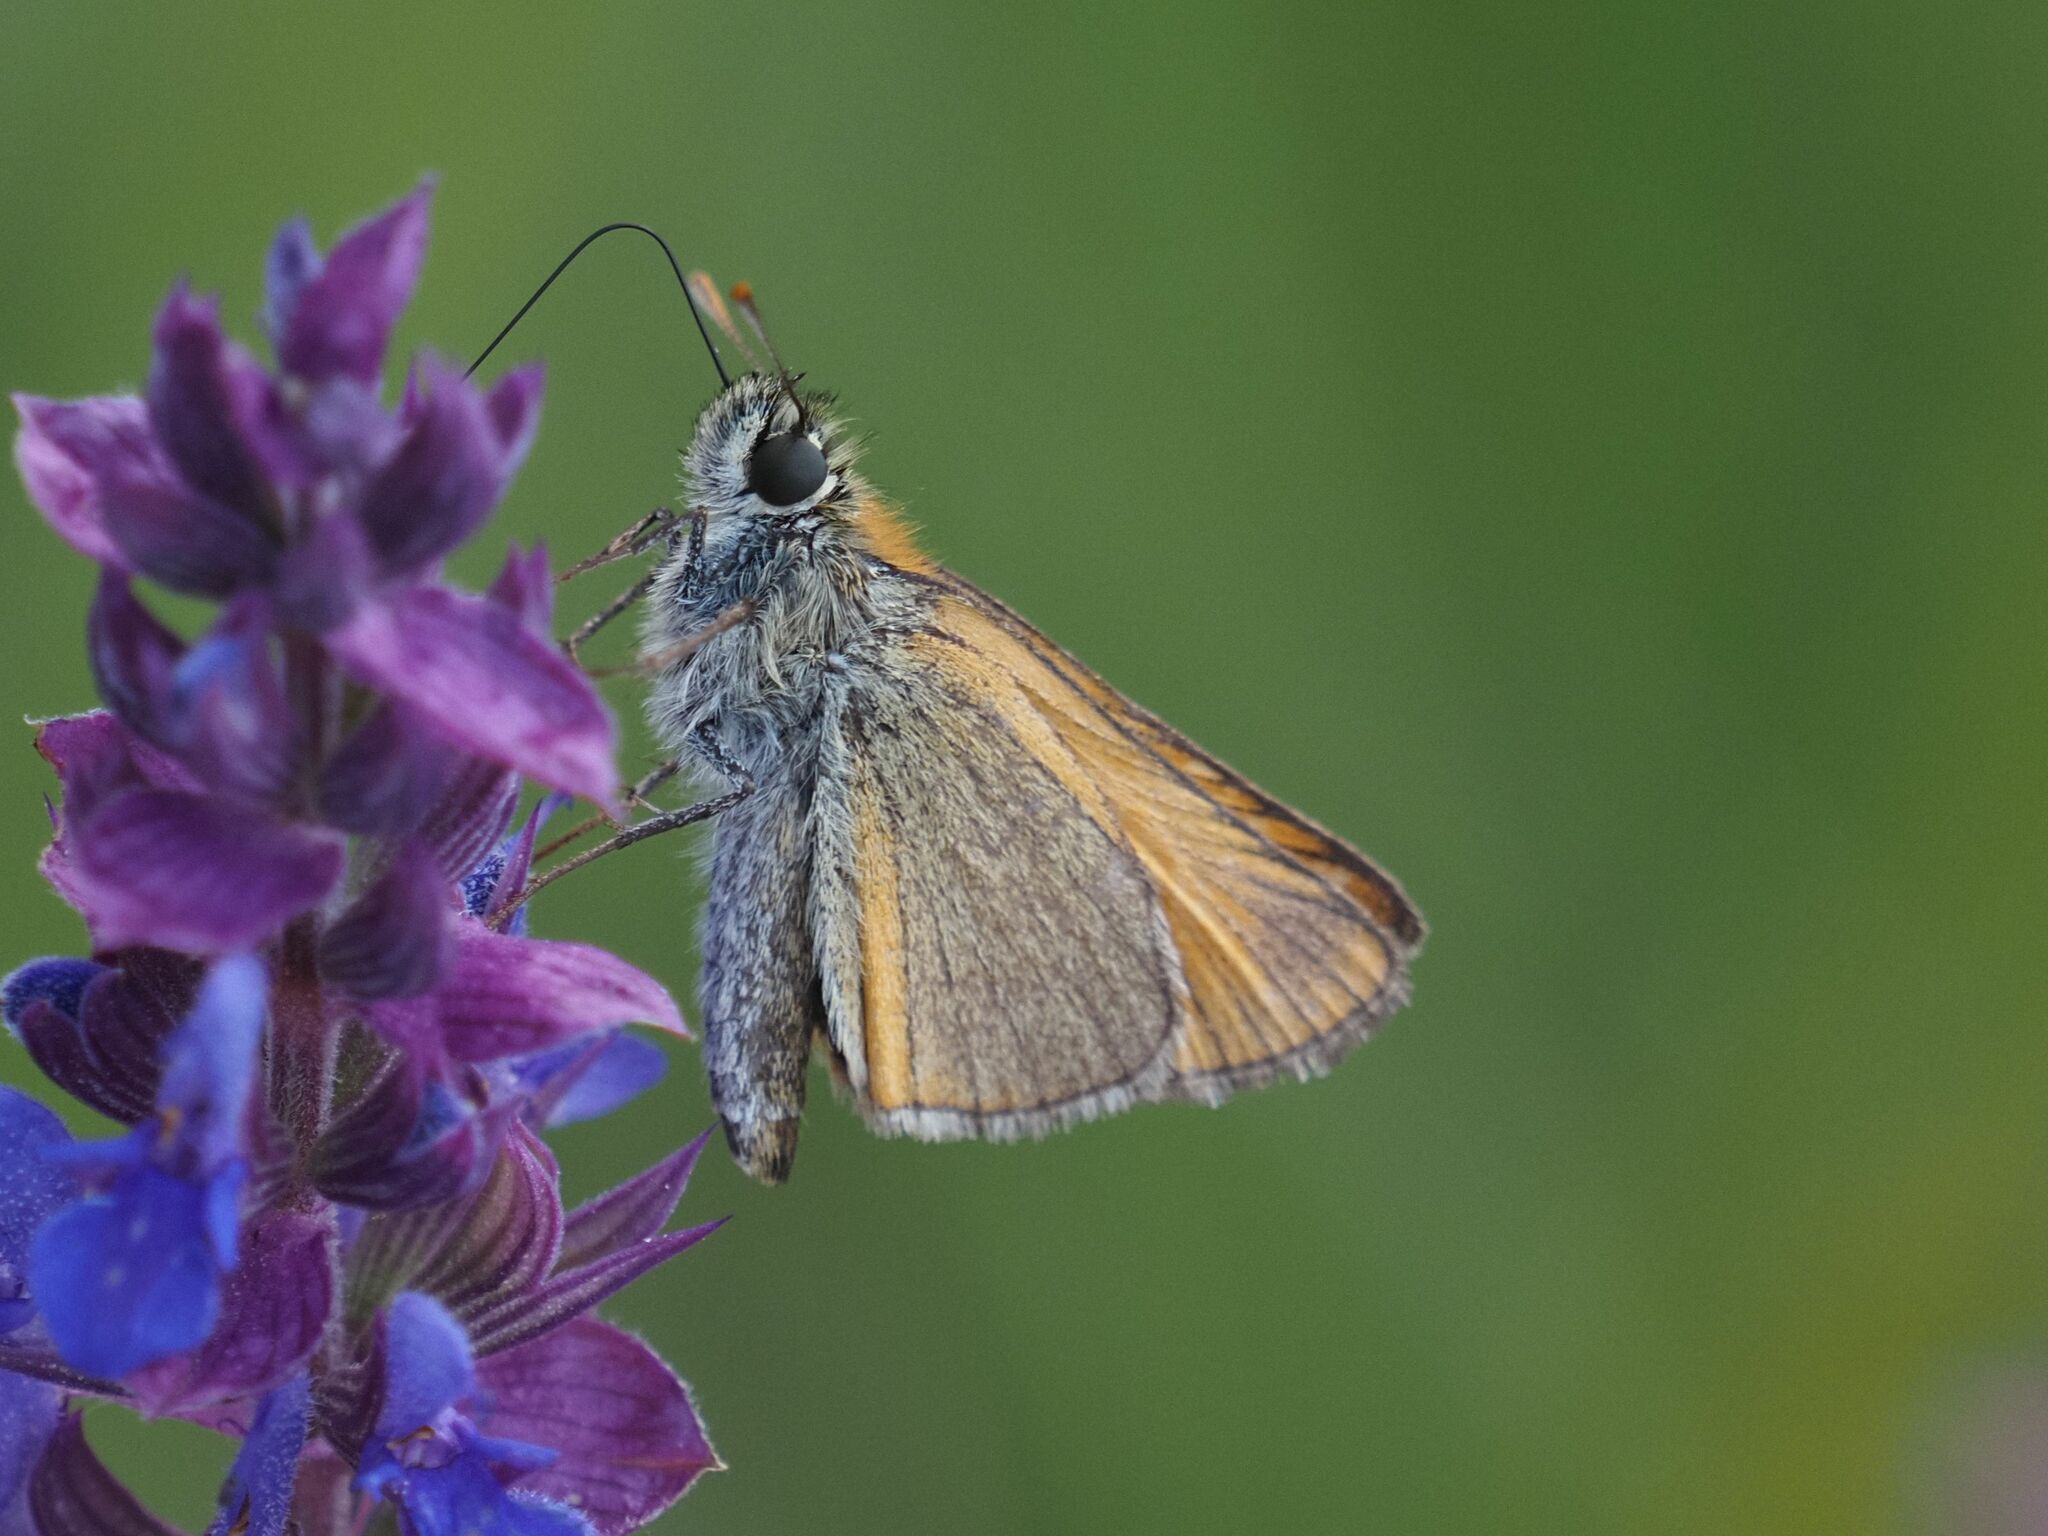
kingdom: Animalia
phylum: Arthropoda
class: Insecta
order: Lepidoptera
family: Hesperiidae
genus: Thymelicus
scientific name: Thymelicus sylvestris
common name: Small skipper
